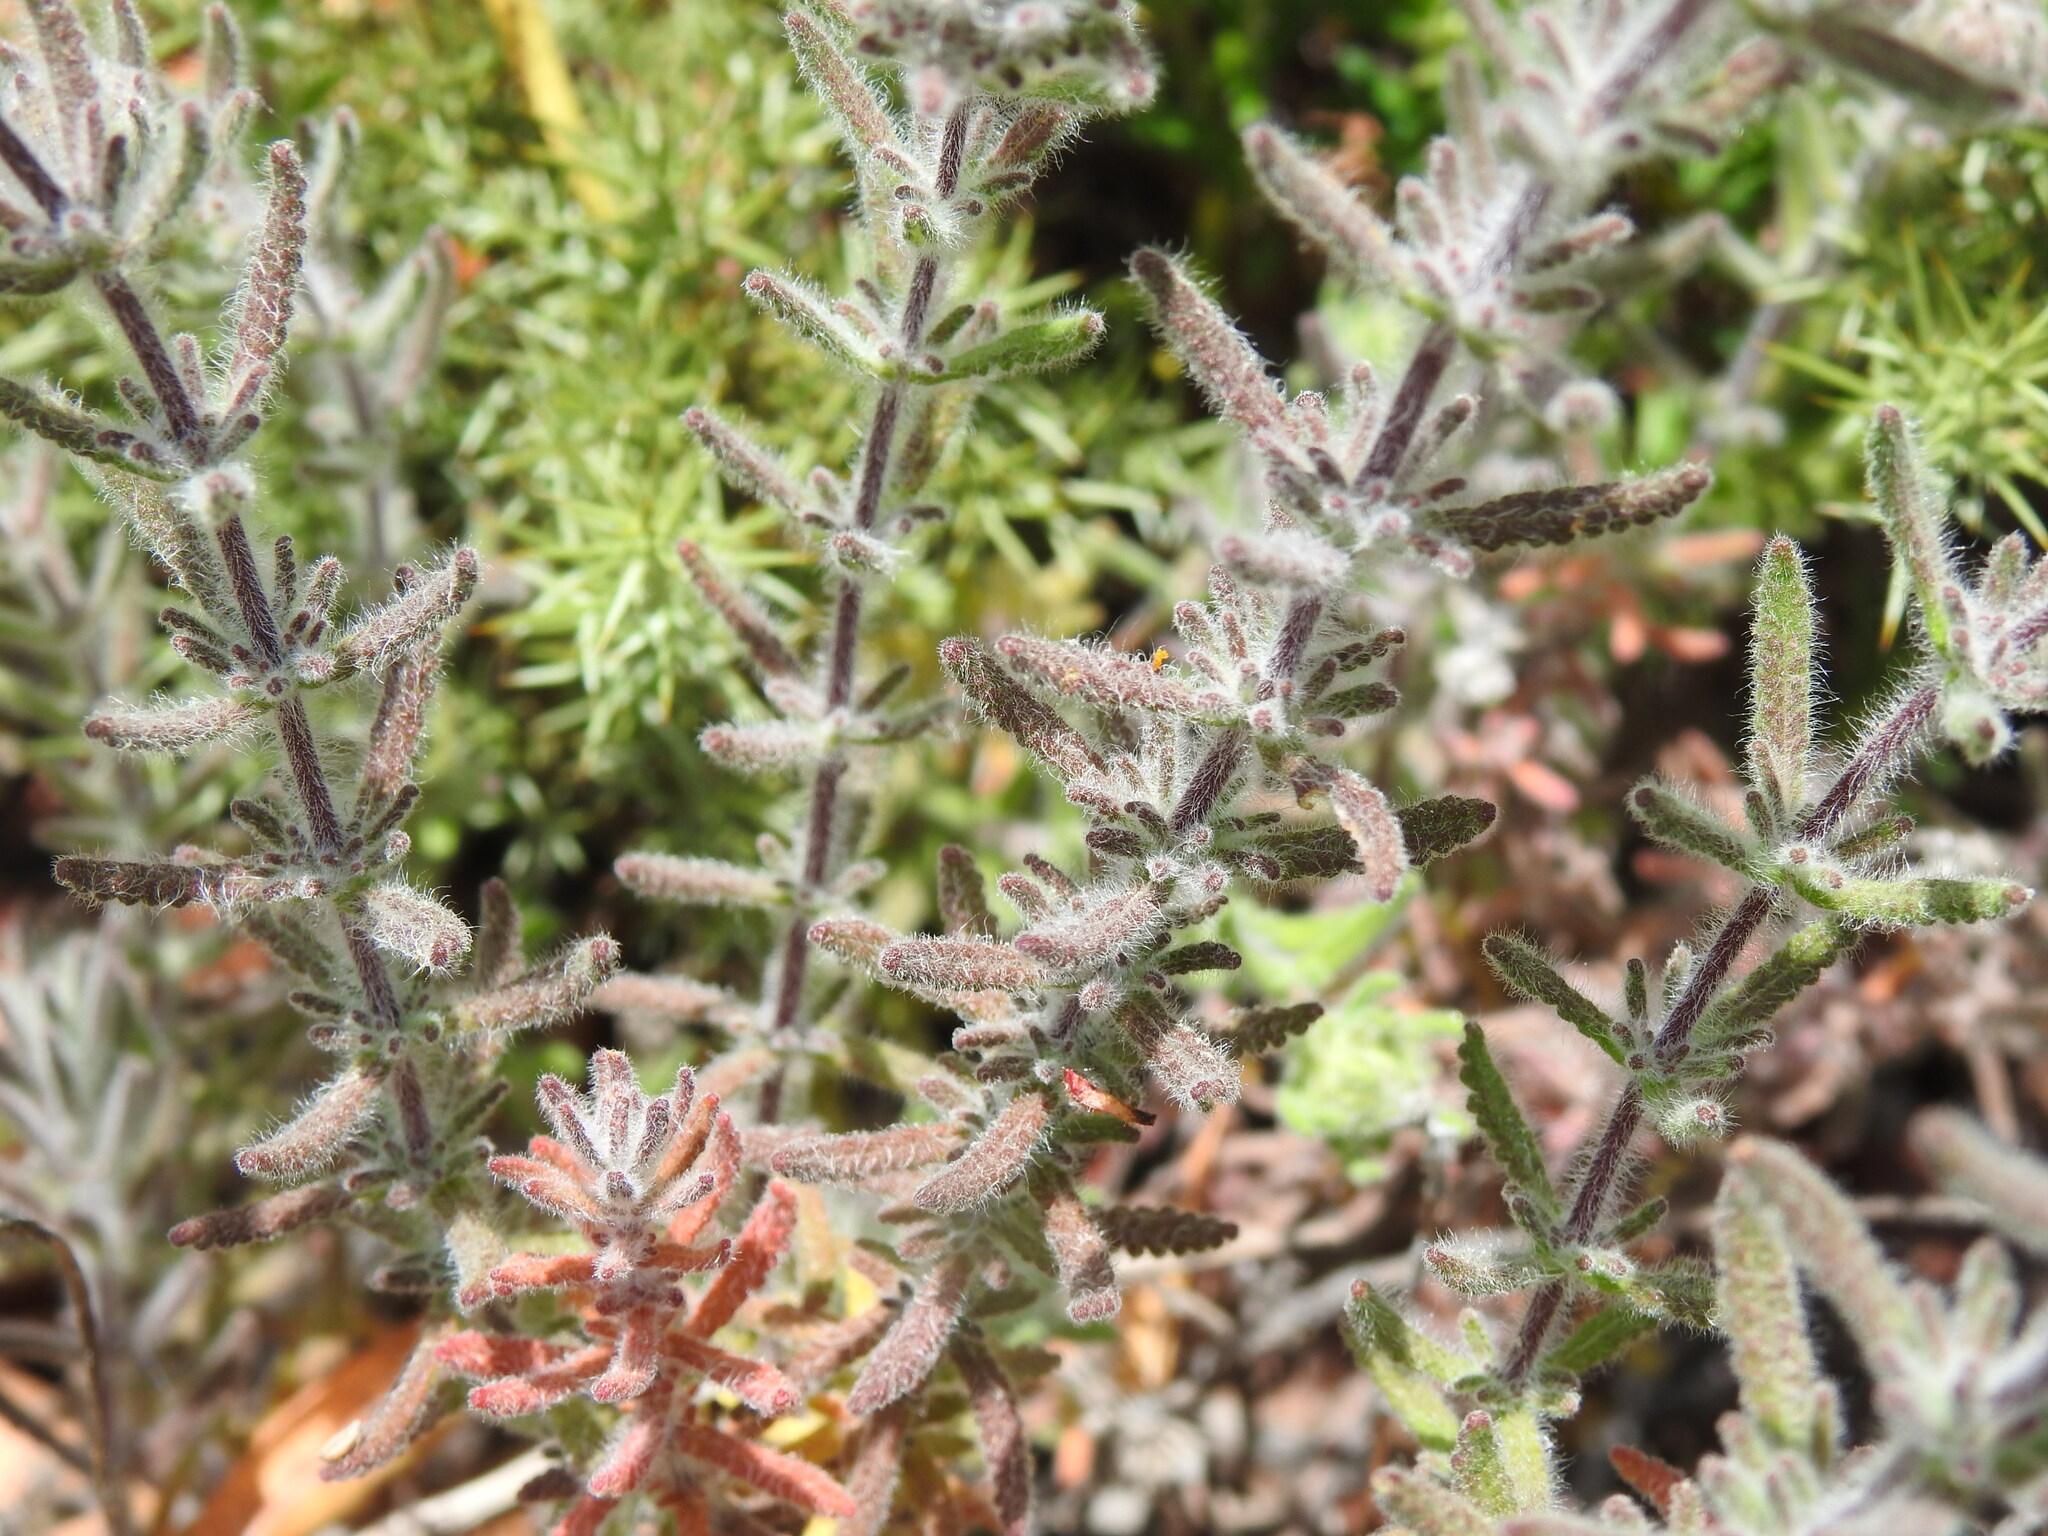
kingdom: Plantae
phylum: Tracheophyta
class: Magnoliopsida
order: Lamiales
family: Lamiaceae
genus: Teucrium
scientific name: Teucrium haenseleri
